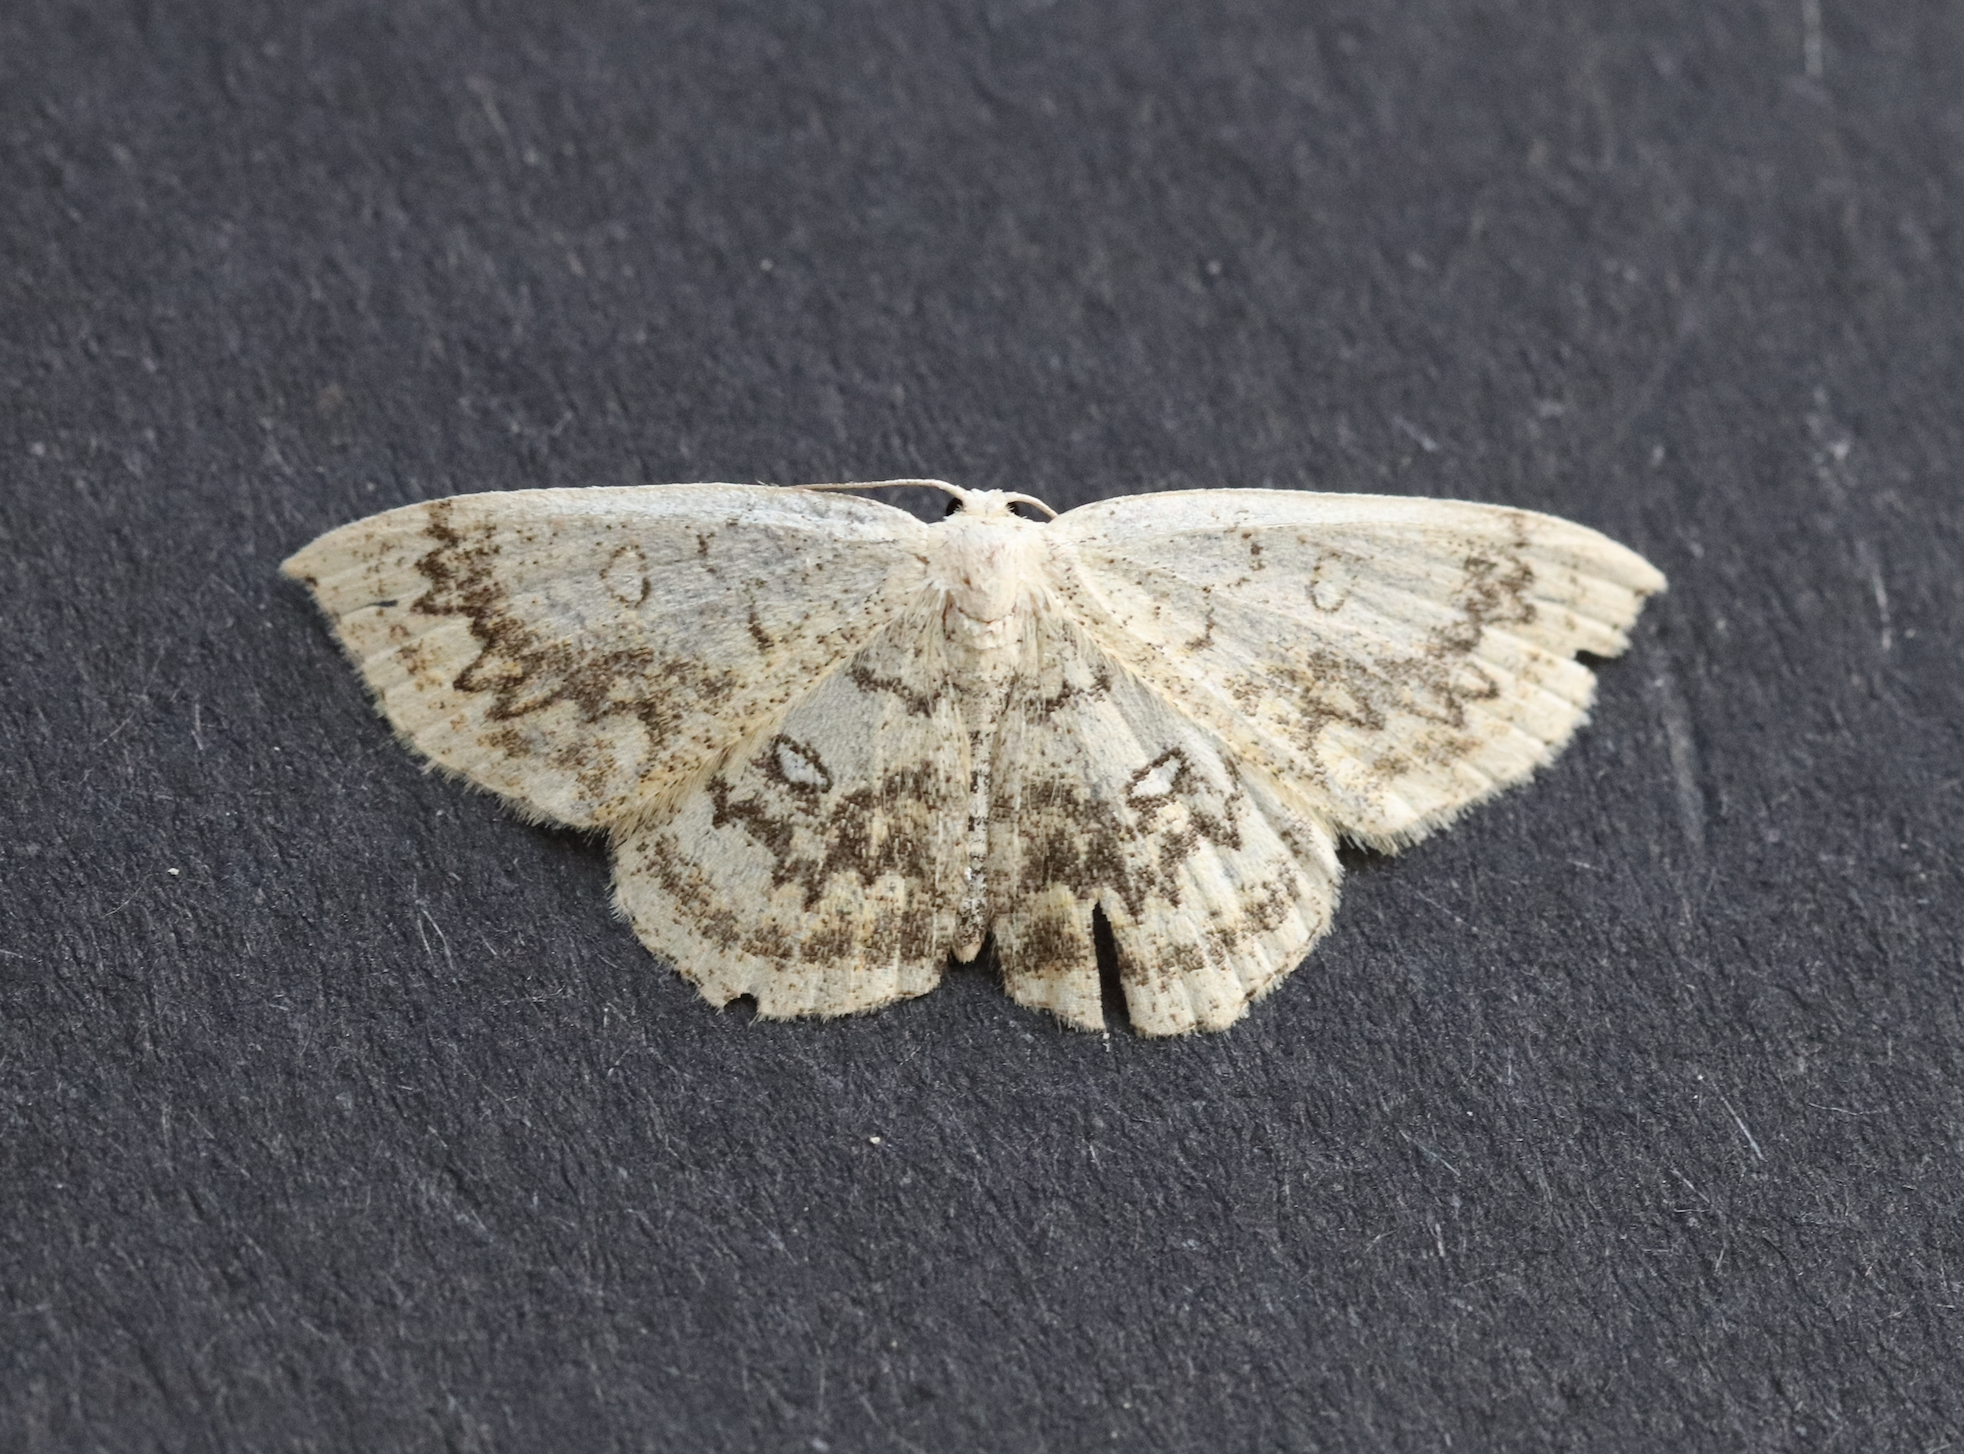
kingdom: Animalia
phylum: Arthropoda
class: Insecta
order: Lepidoptera
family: Geometridae
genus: Cyclophora
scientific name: Cyclophora annularia
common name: Mocha
